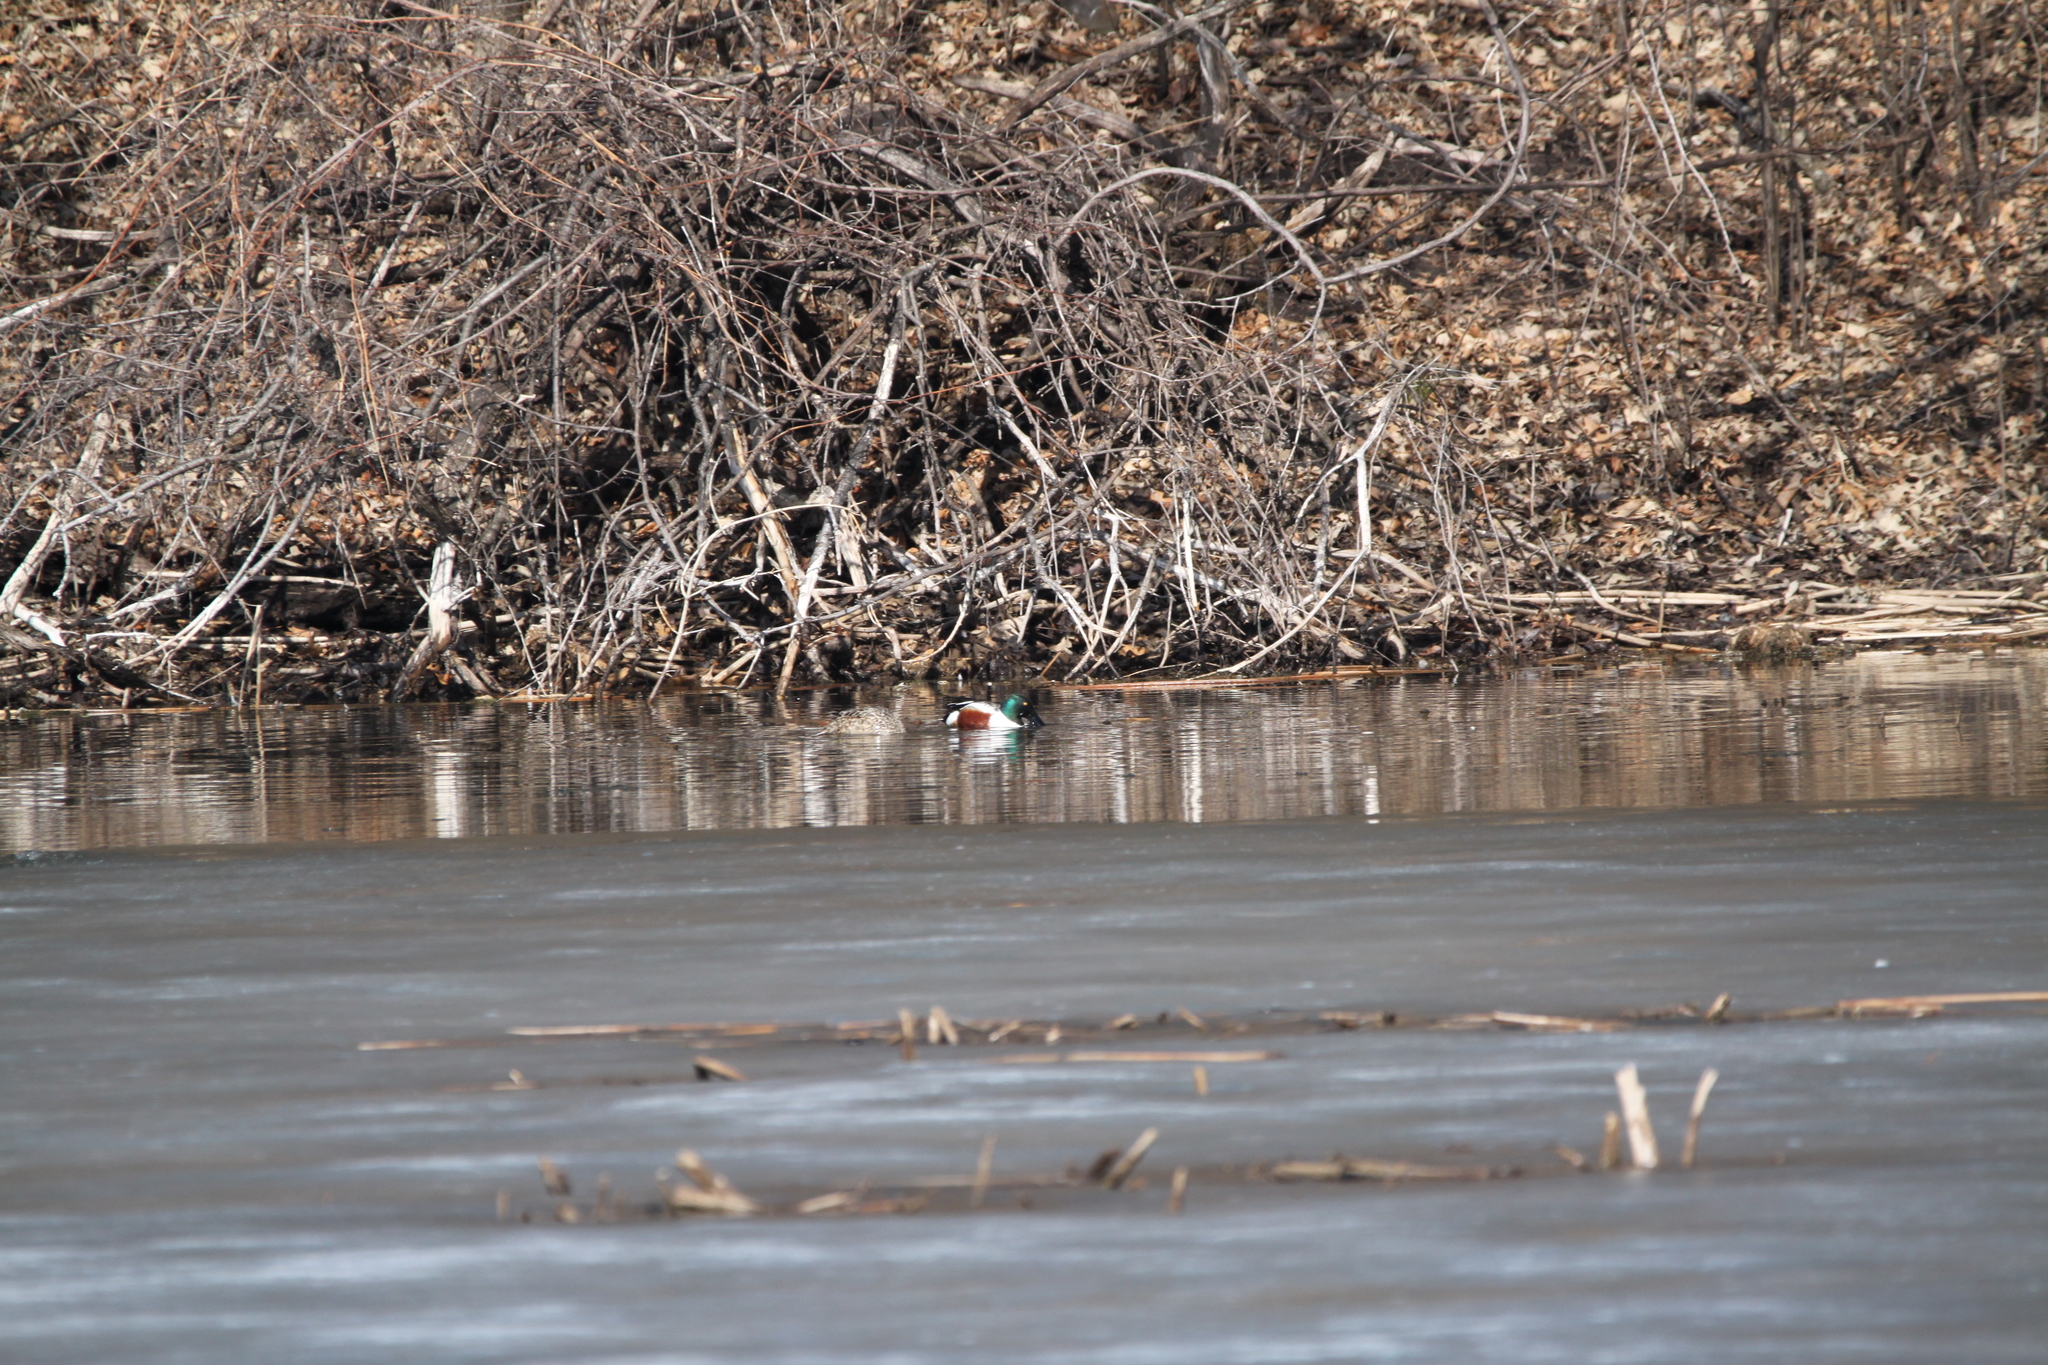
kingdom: Animalia
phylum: Chordata
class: Aves
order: Anseriformes
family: Anatidae
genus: Spatula
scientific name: Spatula clypeata
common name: Northern shoveler
